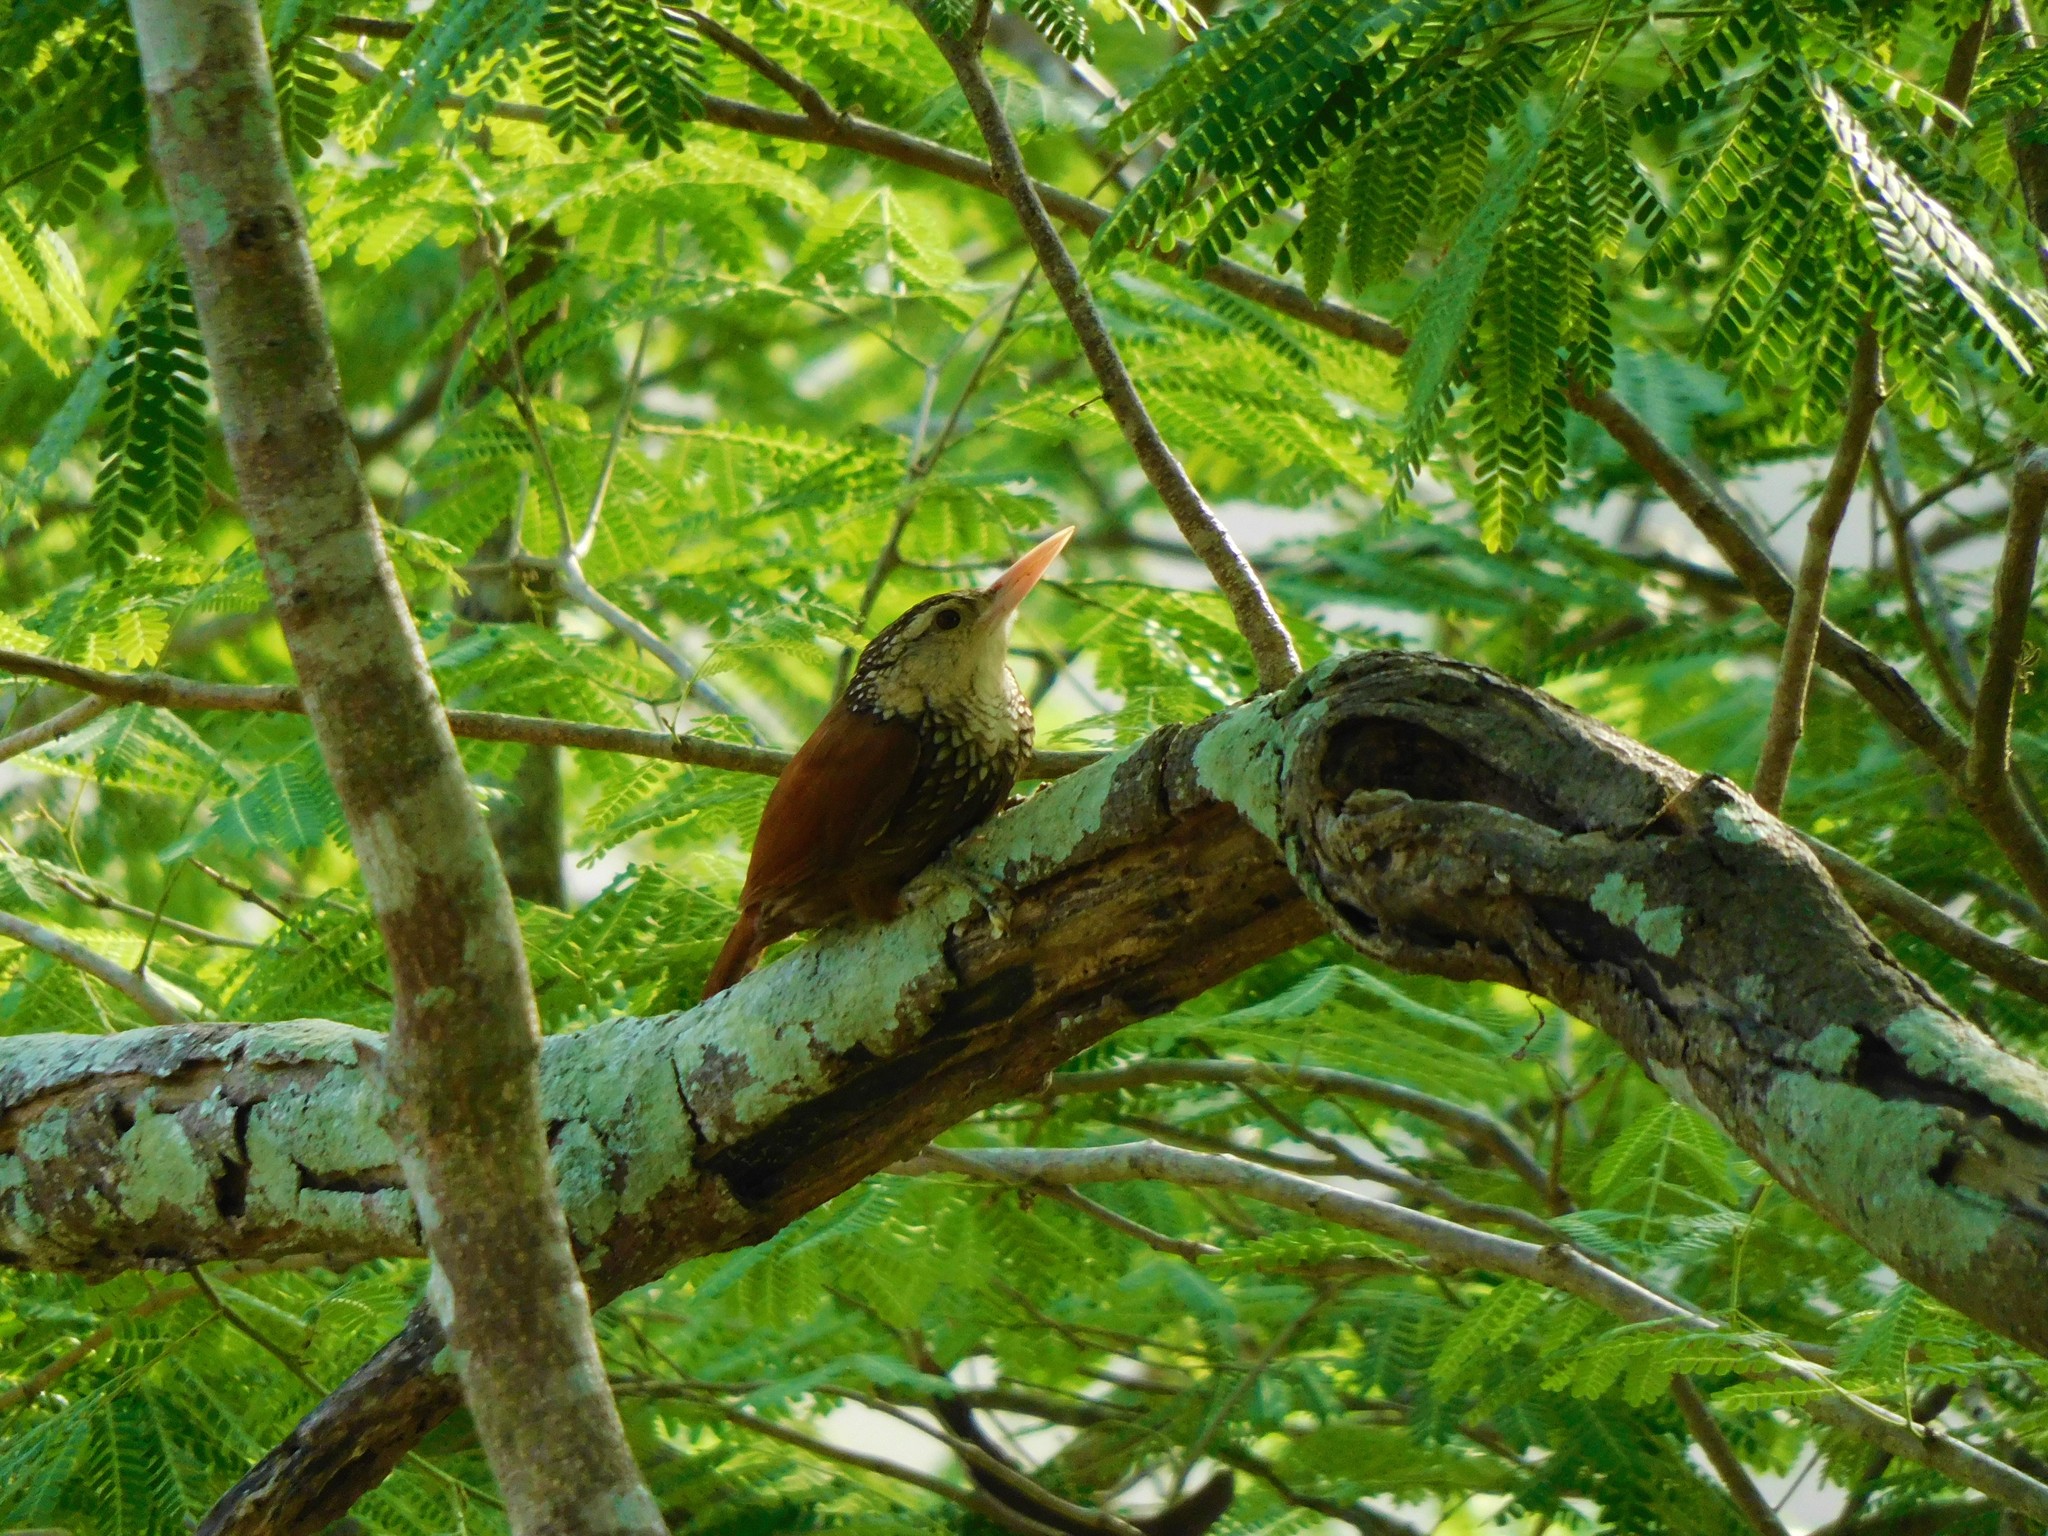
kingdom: Animalia
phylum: Chordata
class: Aves
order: Passeriformes
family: Furnariidae
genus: Xiphorhynchus
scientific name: Xiphorhynchus picus
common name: Straight-billed woodcreeper
